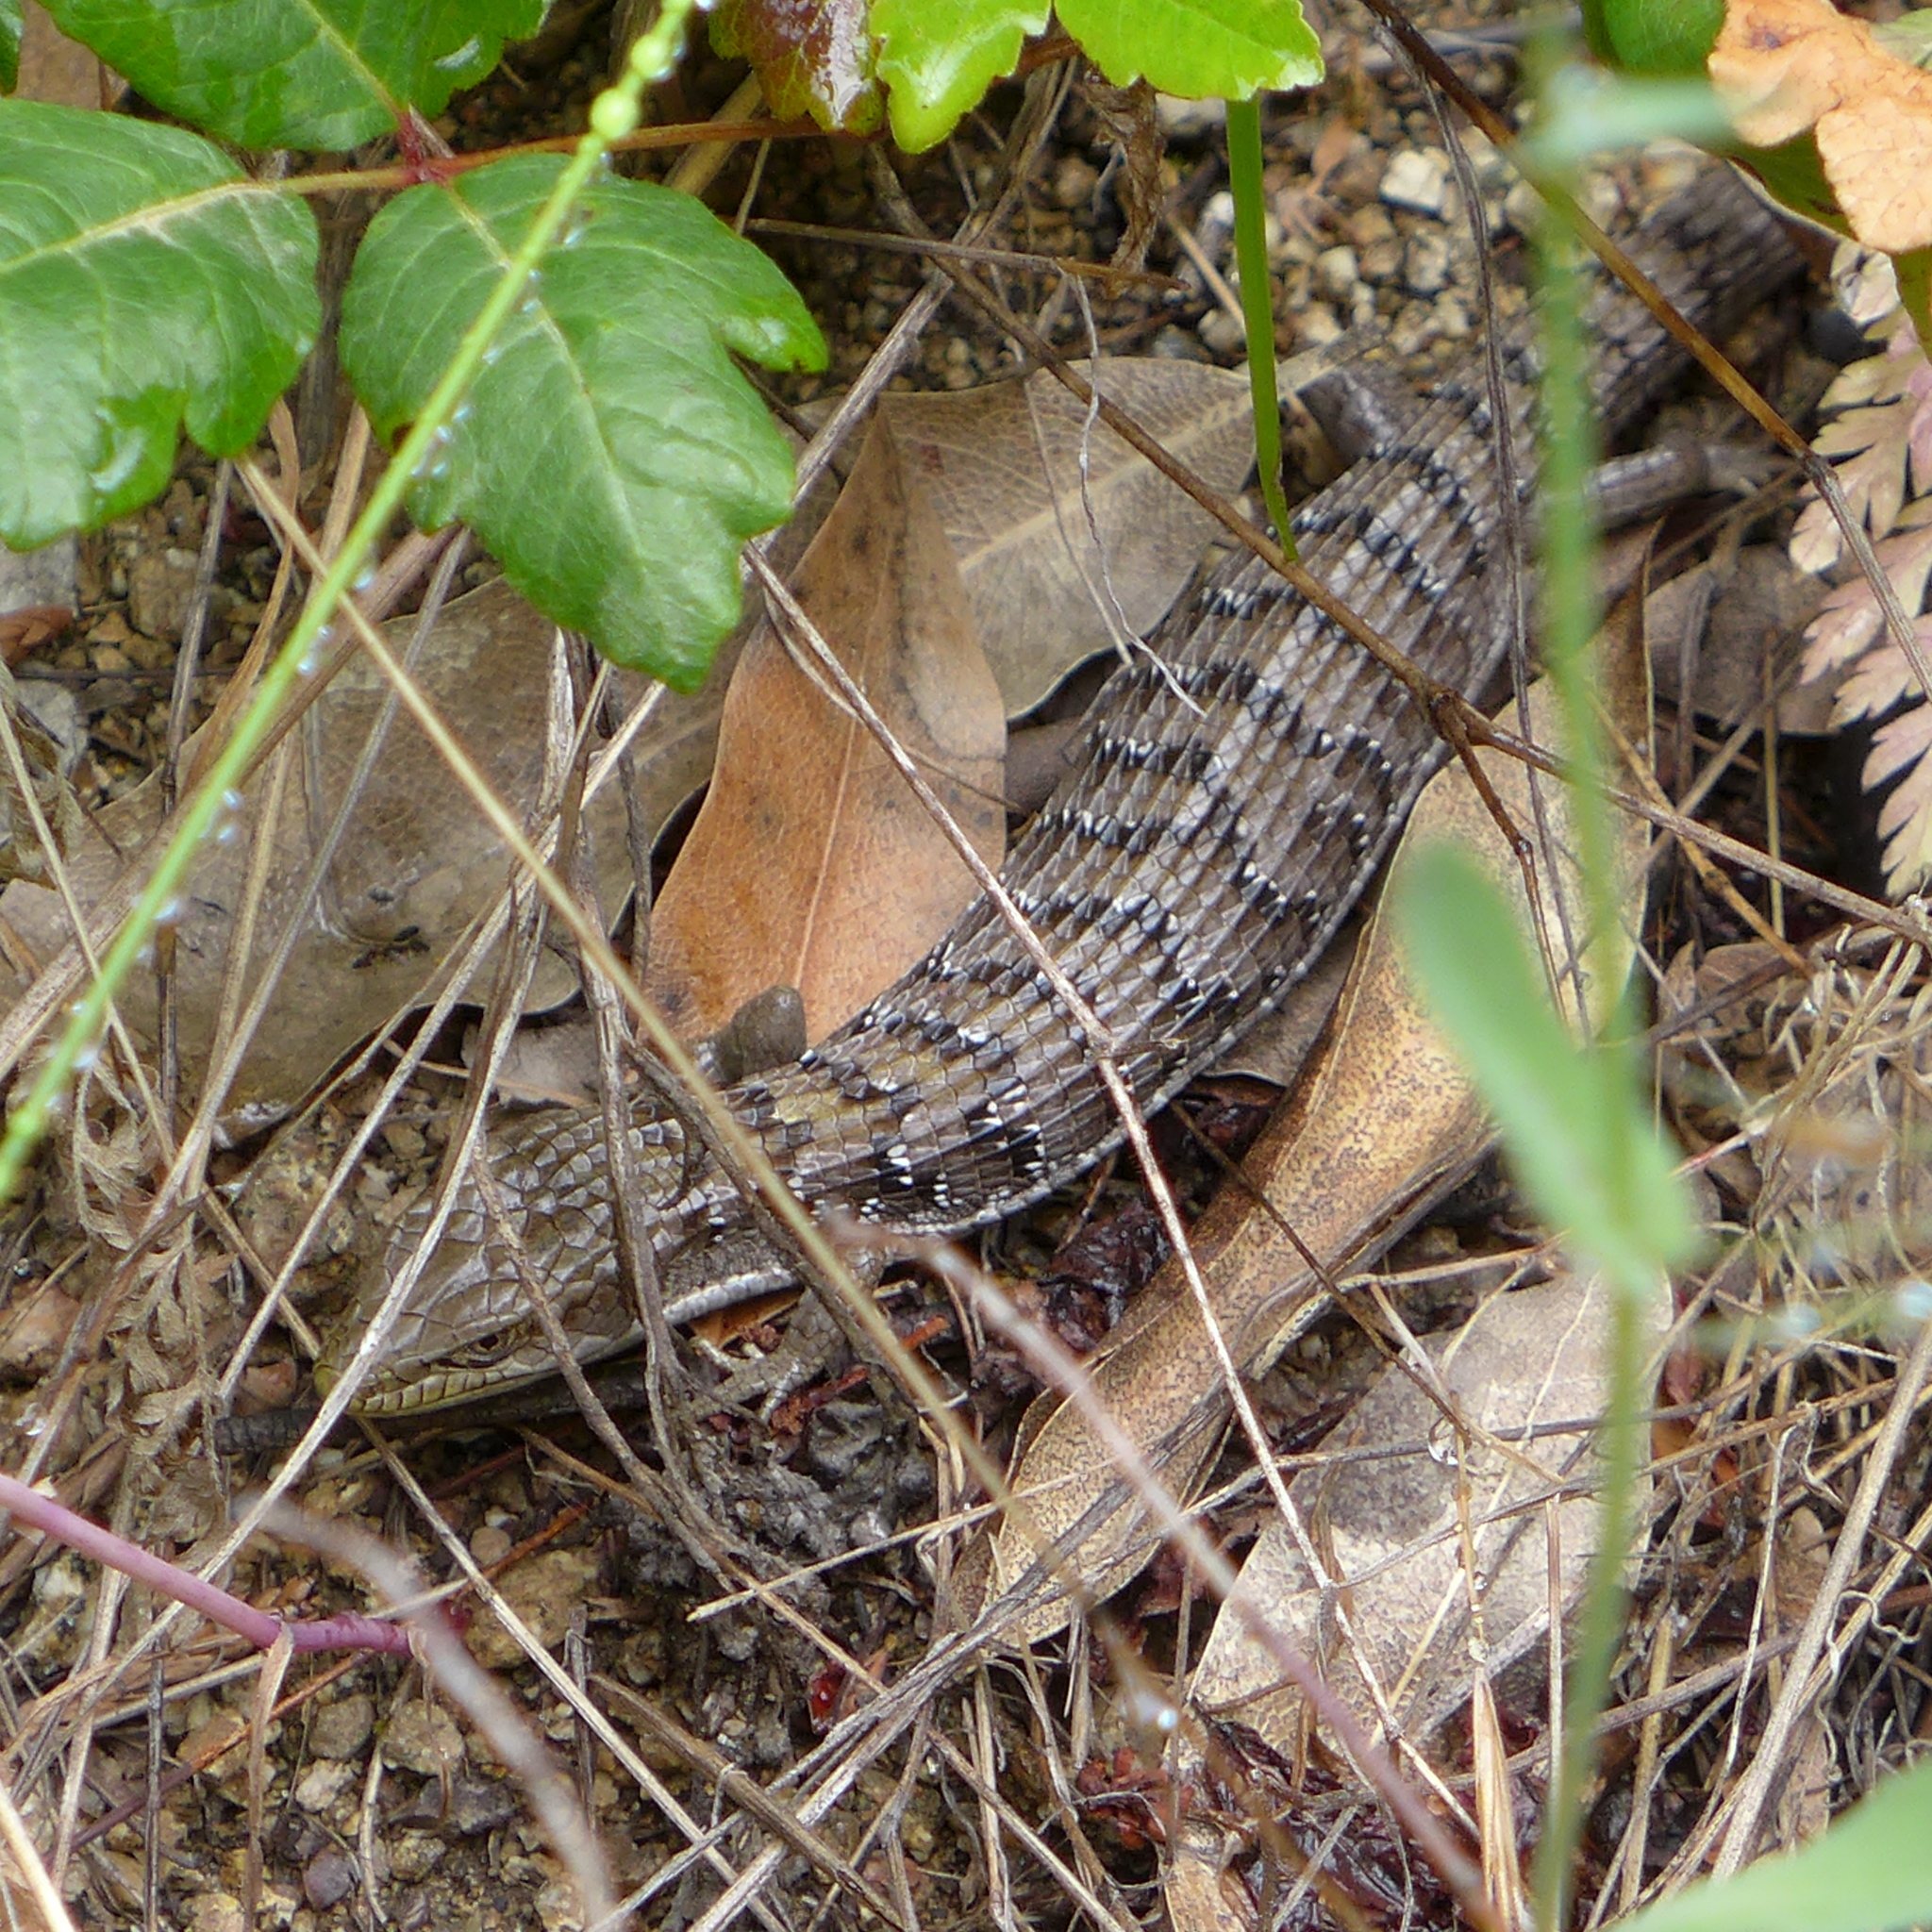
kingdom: Animalia
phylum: Chordata
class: Squamata
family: Anguidae
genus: Elgaria
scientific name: Elgaria multicarinata
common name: Southern alligator lizard
